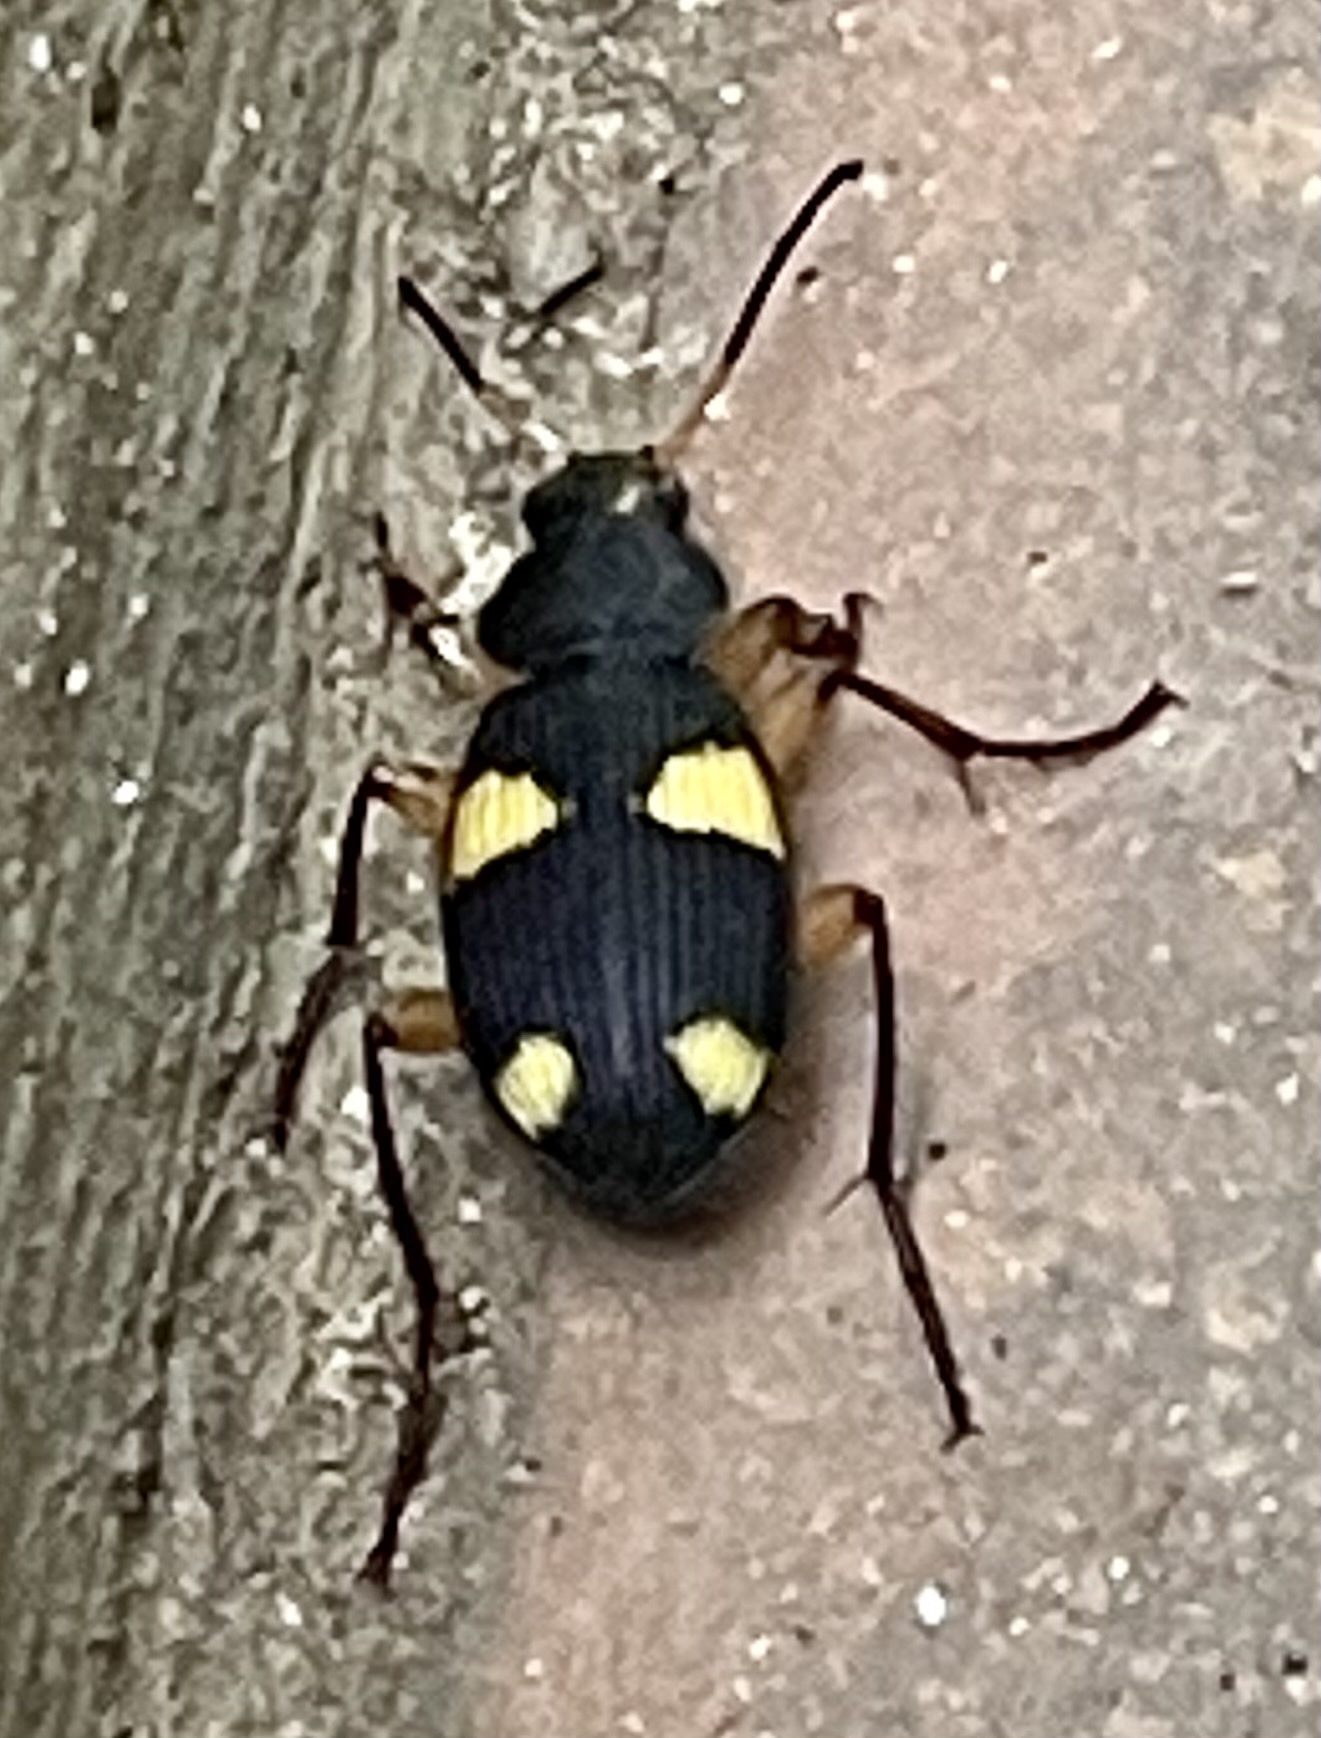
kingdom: Animalia
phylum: Arthropoda
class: Insecta
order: Coleoptera
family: Carabidae
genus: Chlaenius
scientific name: Chlaenius panagaeoides
